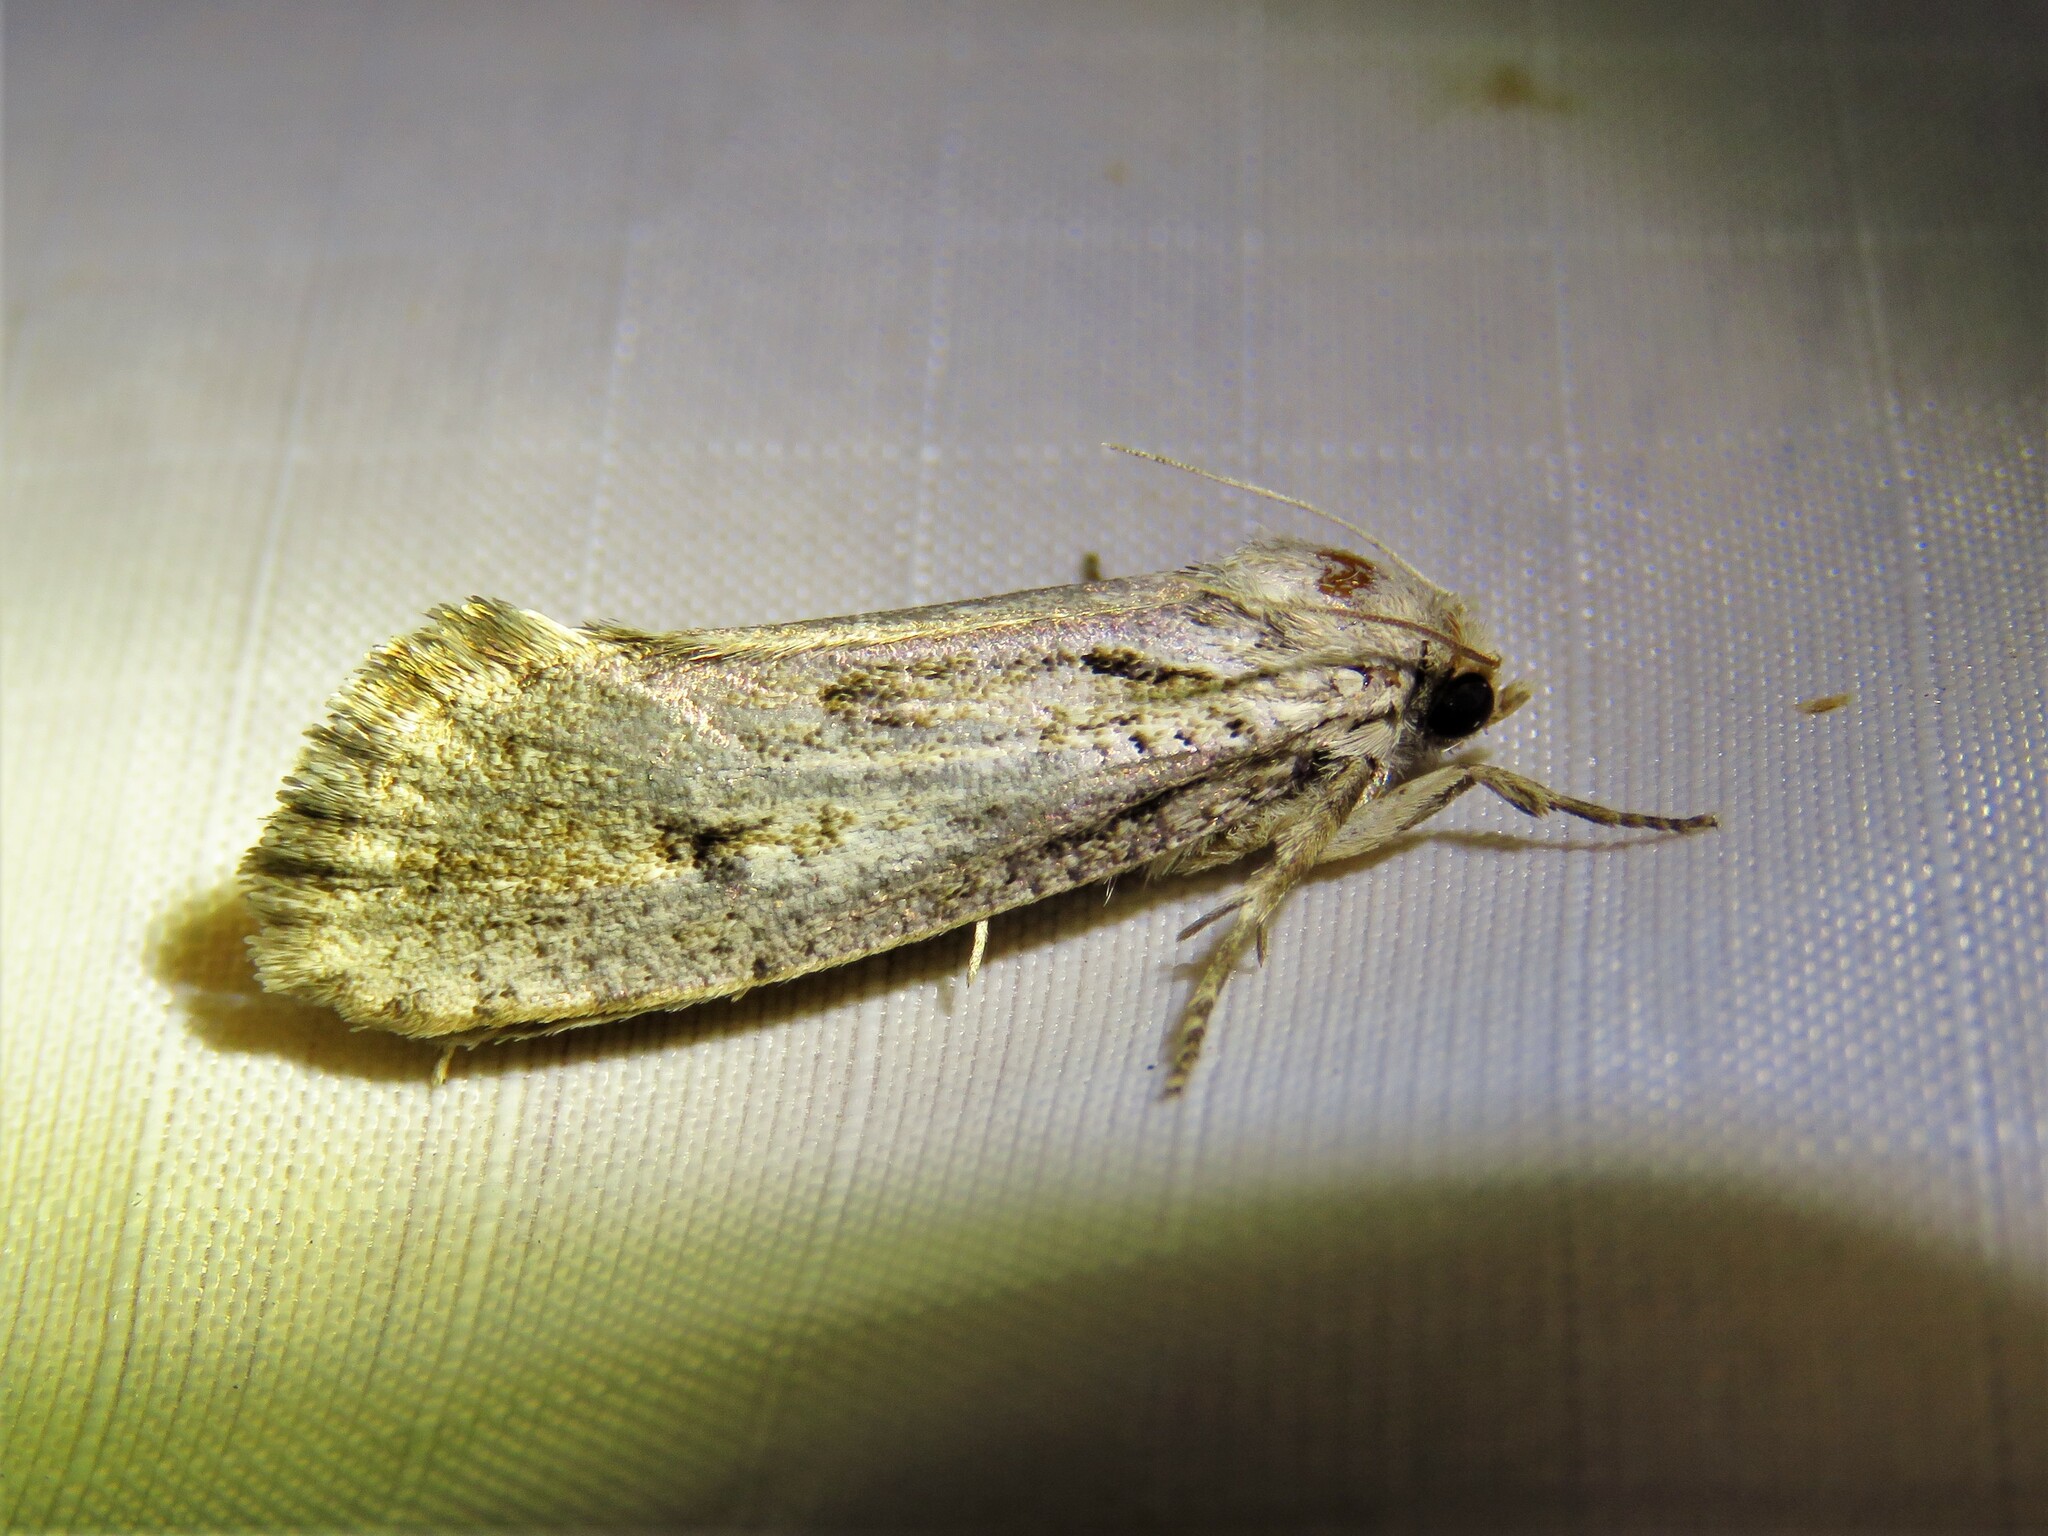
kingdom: Animalia
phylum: Arthropoda
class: Insecta
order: Lepidoptera
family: Tineidae
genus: Acrolophus
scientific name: Acrolophus popeanella
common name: Clemens' grass tubeworm moth
